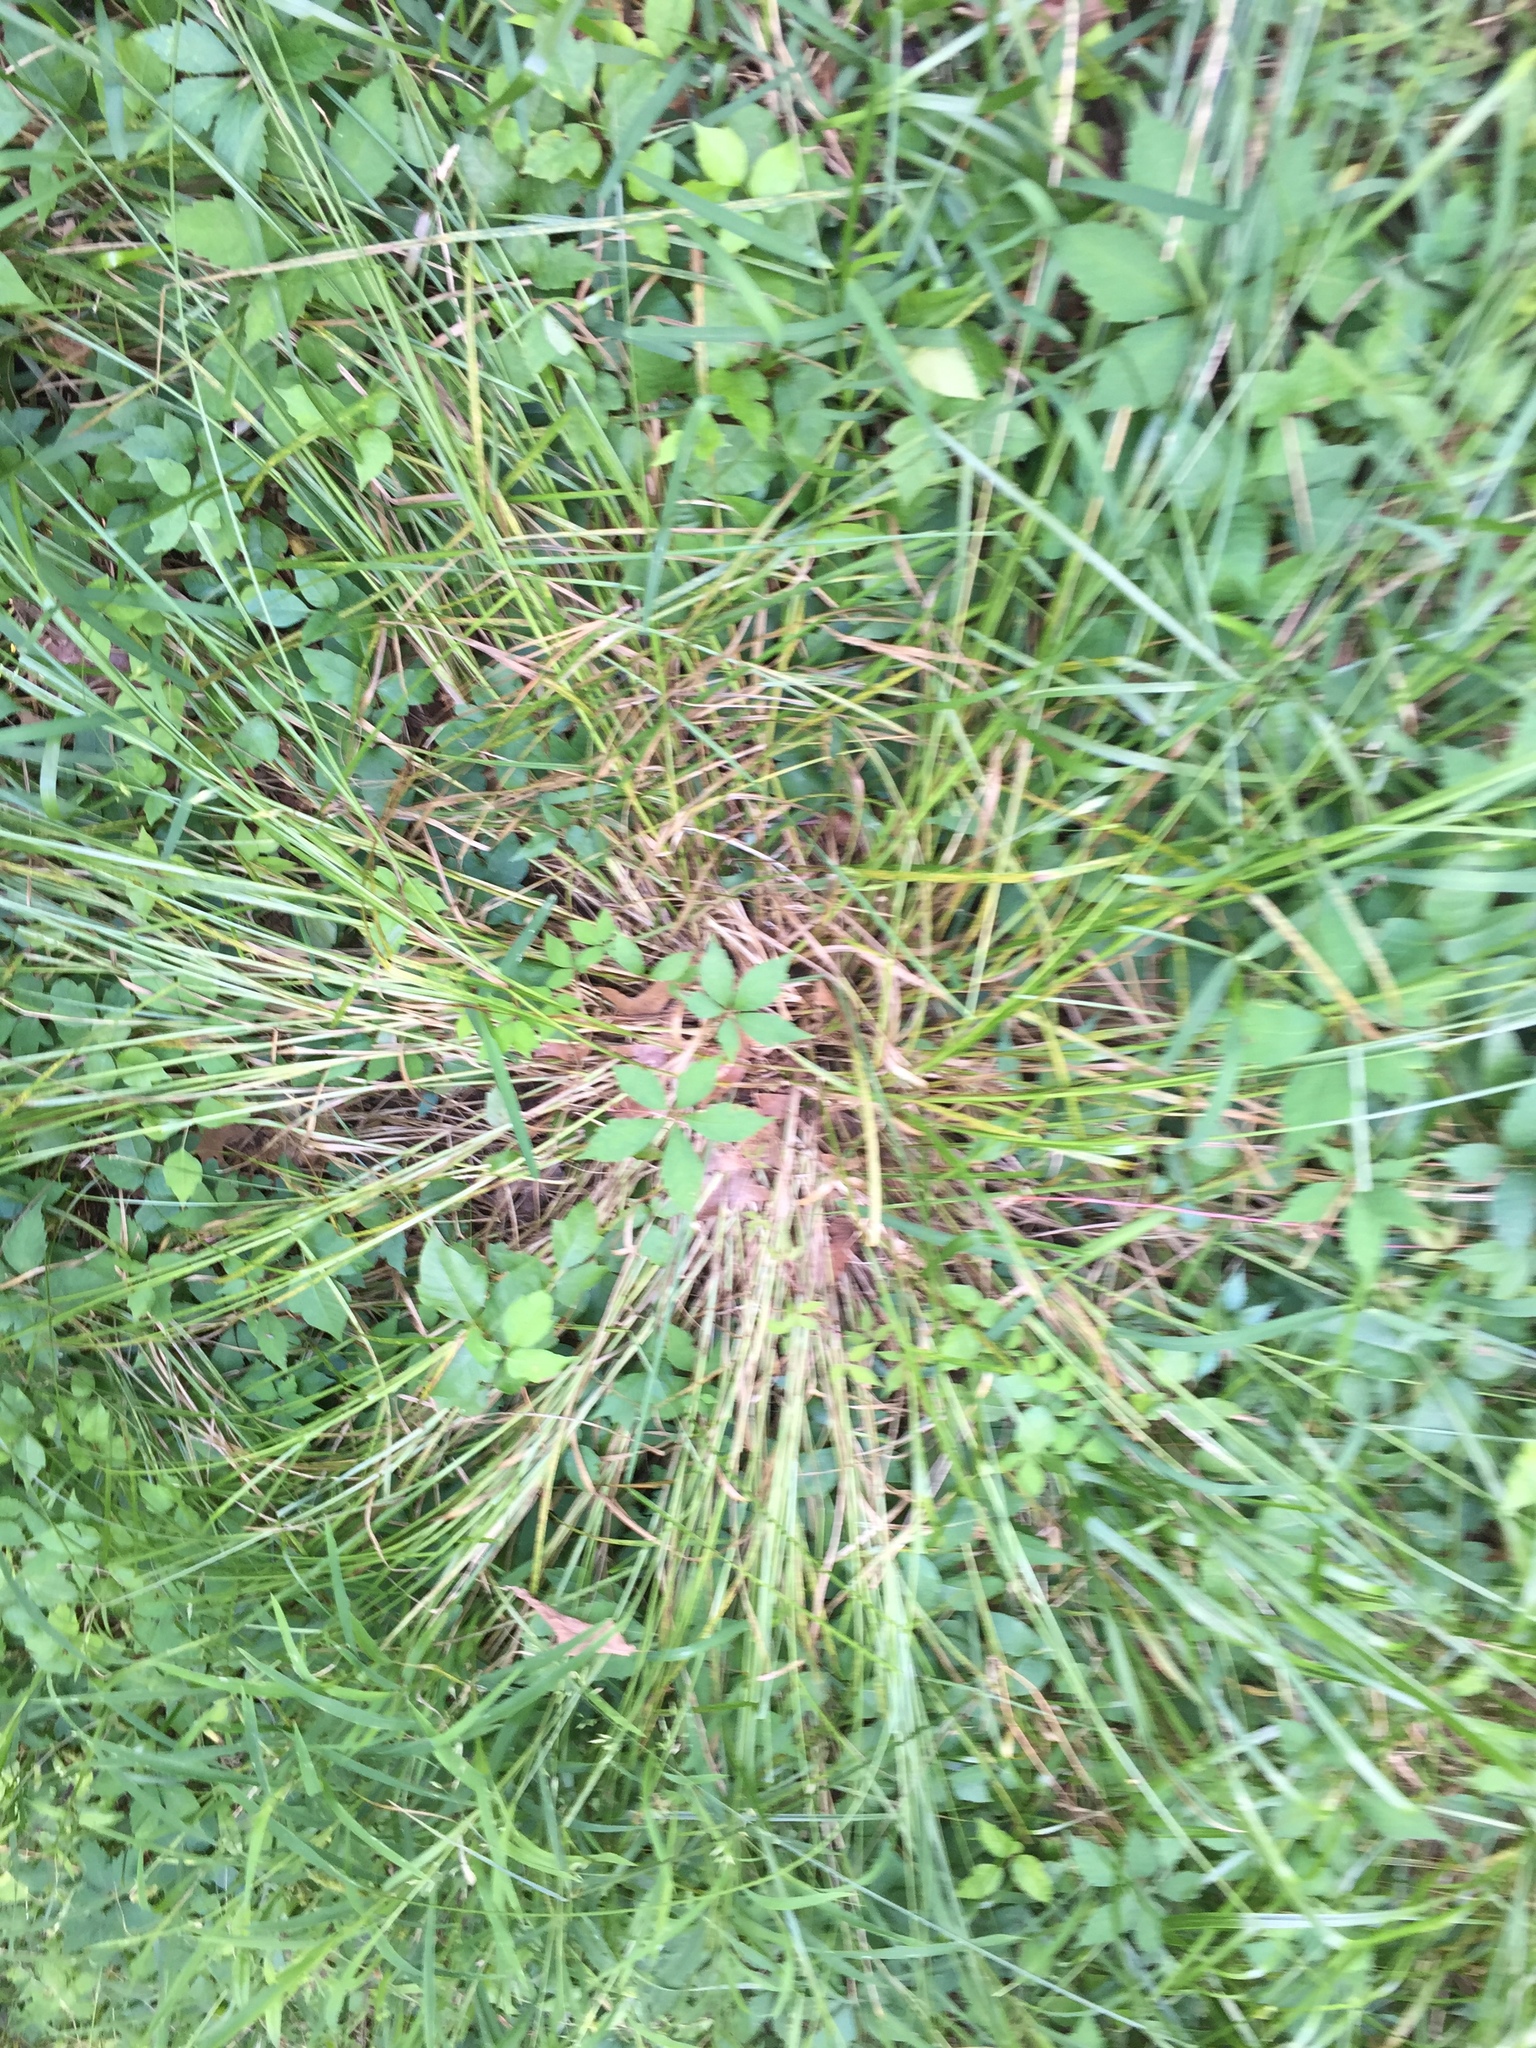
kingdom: Plantae
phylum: Tracheophyta
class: Liliopsida
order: Poales
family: Cyperaceae
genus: Carex
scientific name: Carex vulpinoidea
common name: American fox-sedge
